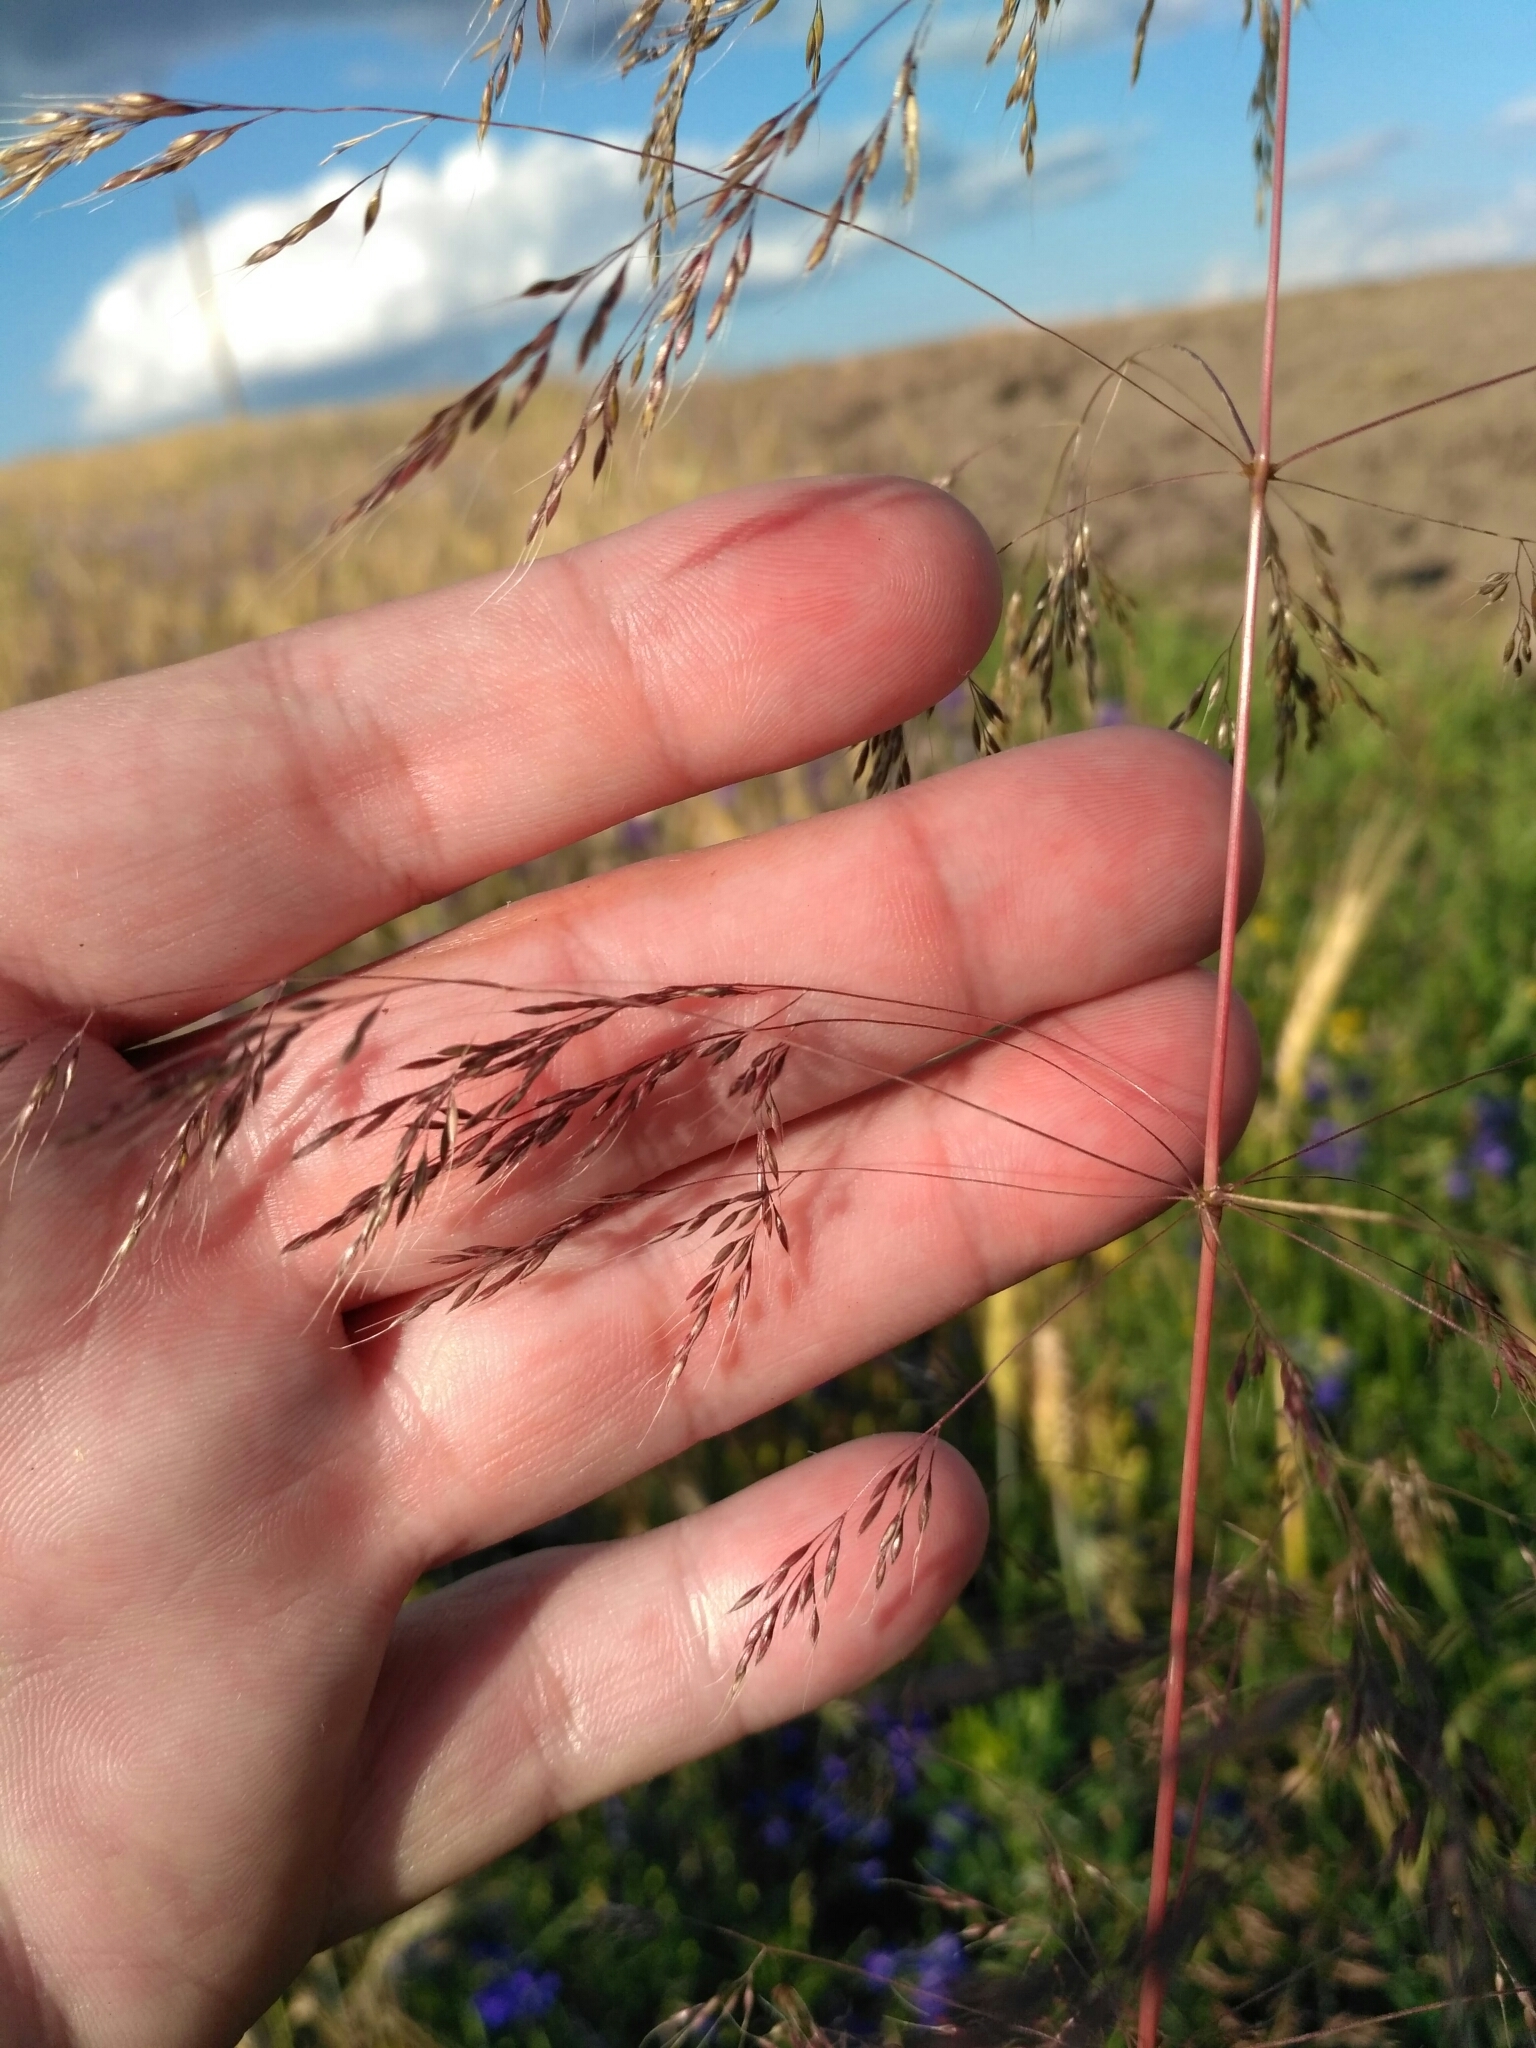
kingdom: Plantae
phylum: Tracheophyta
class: Liliopsida
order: Poales
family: Poaceae
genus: Apera
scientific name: Apera spica-venti
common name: Loose silky-bent
